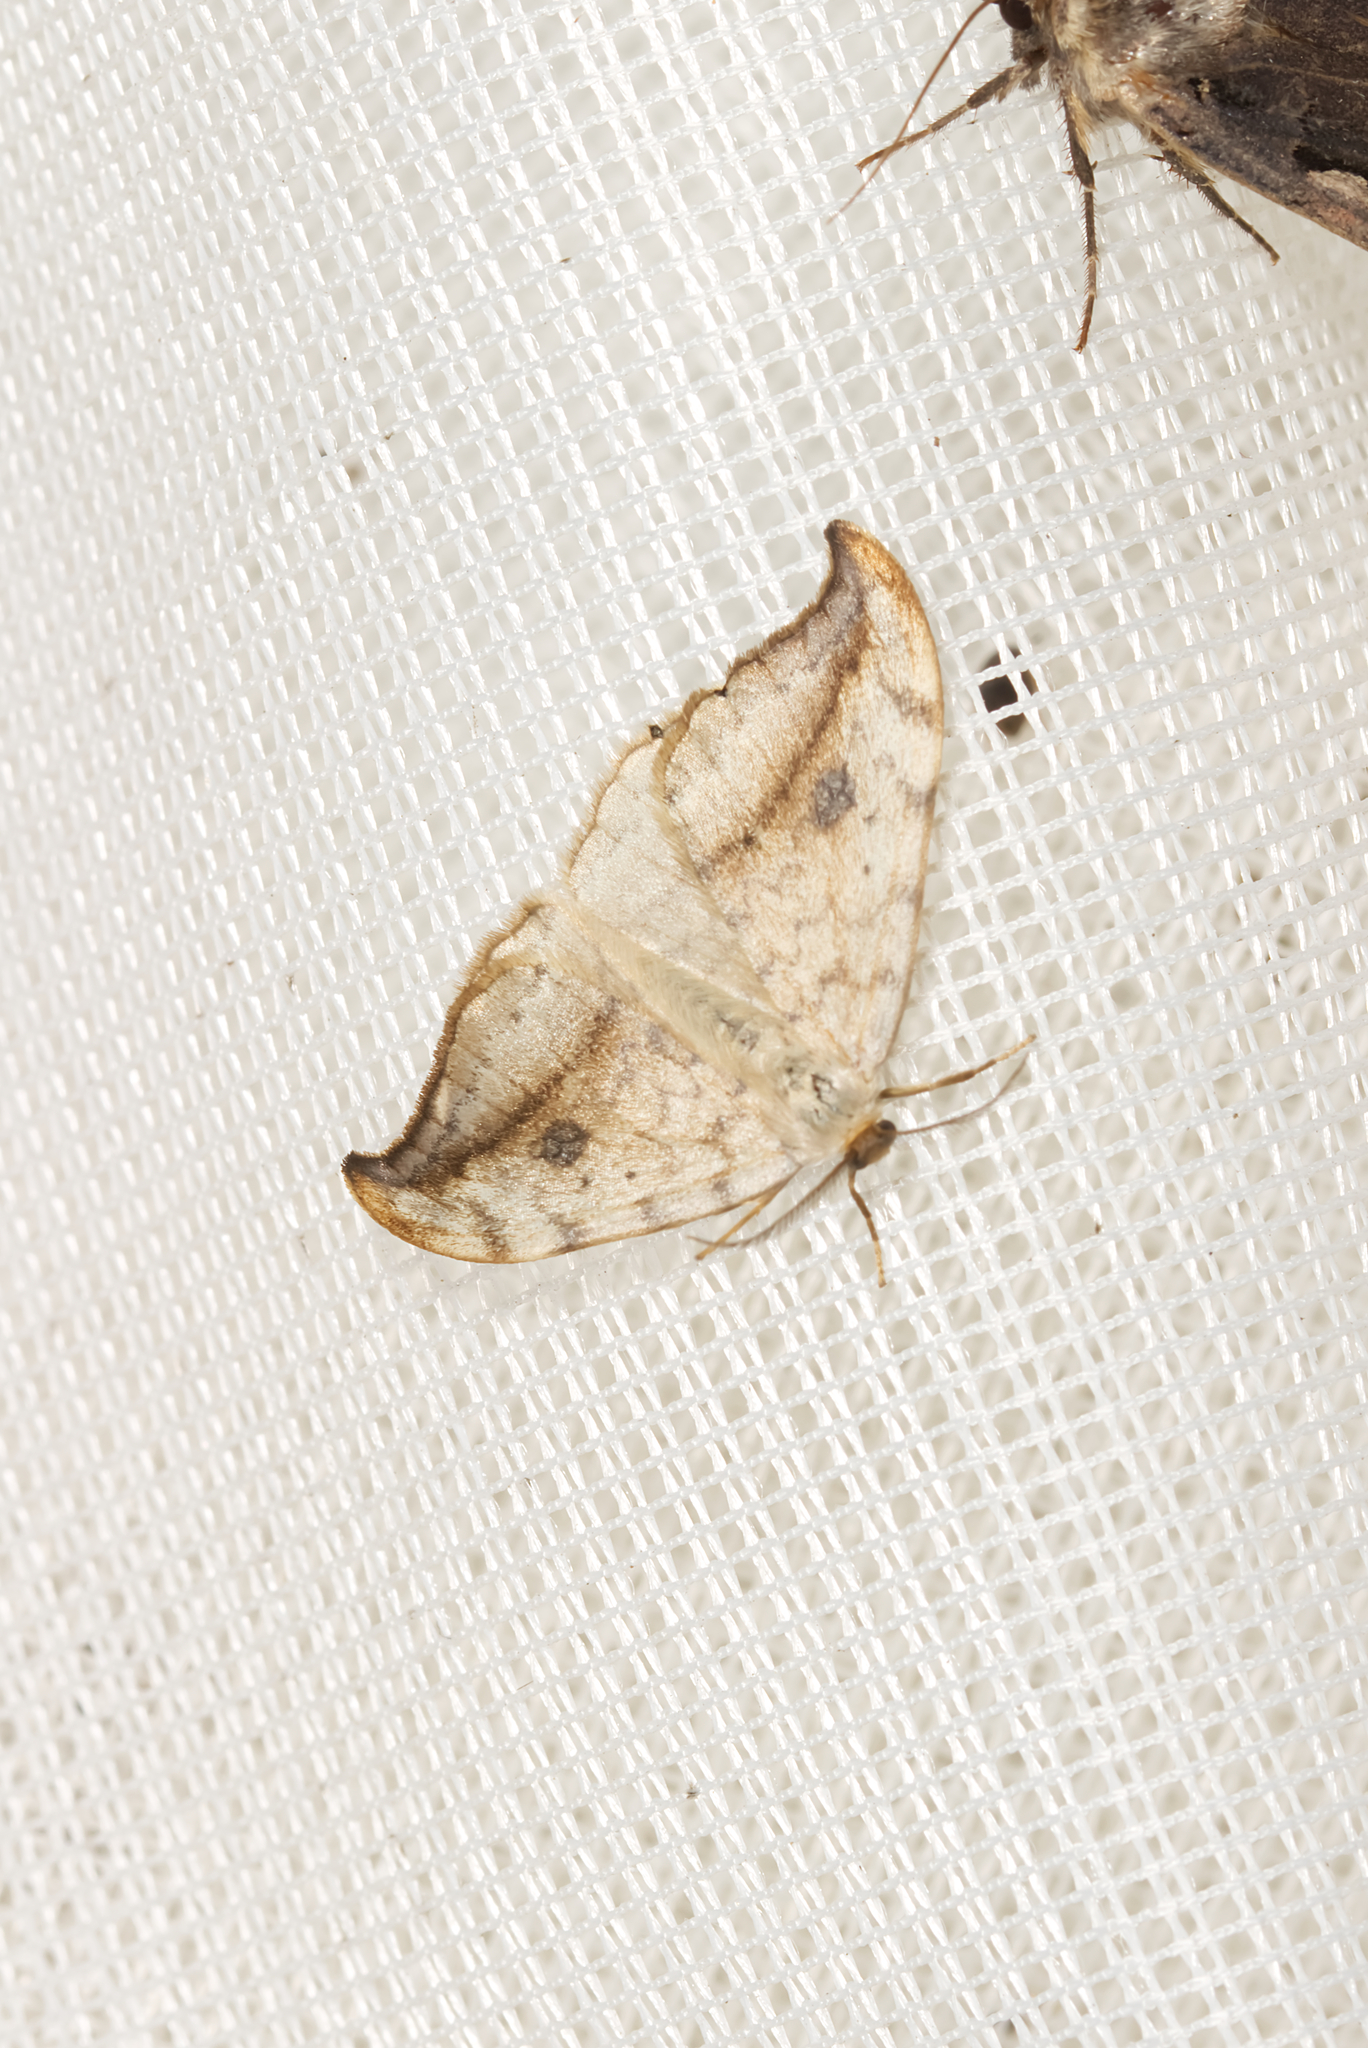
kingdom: Animalia
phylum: Arthropoda
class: Insecta
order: Lepidoptera
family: Drepanidae
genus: Drepana
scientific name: Drepana falcataria
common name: Pebble hook-tip
